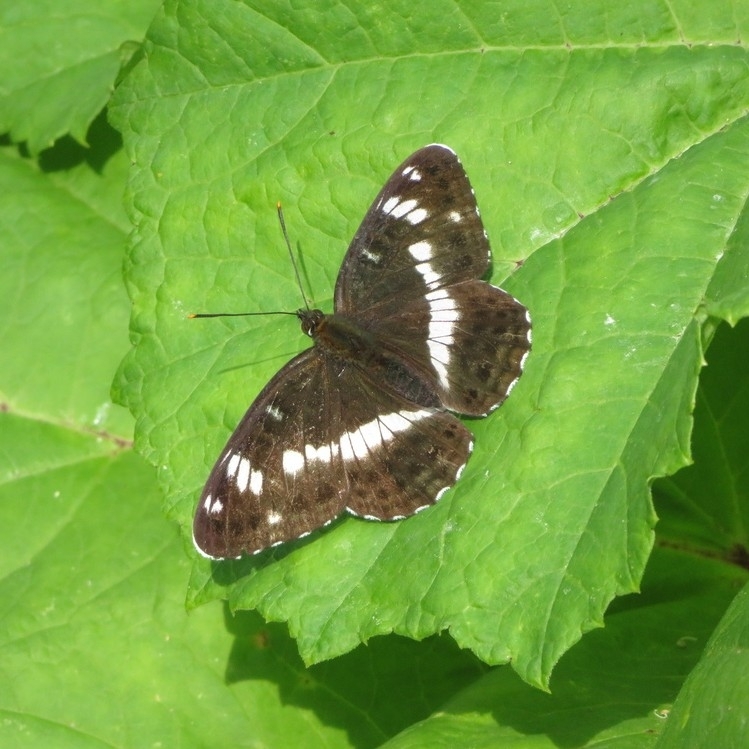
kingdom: Animalia
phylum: Arthropoda
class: Insecta
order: Lepidoptera
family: Nymphalidae
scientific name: Nymphalidae
